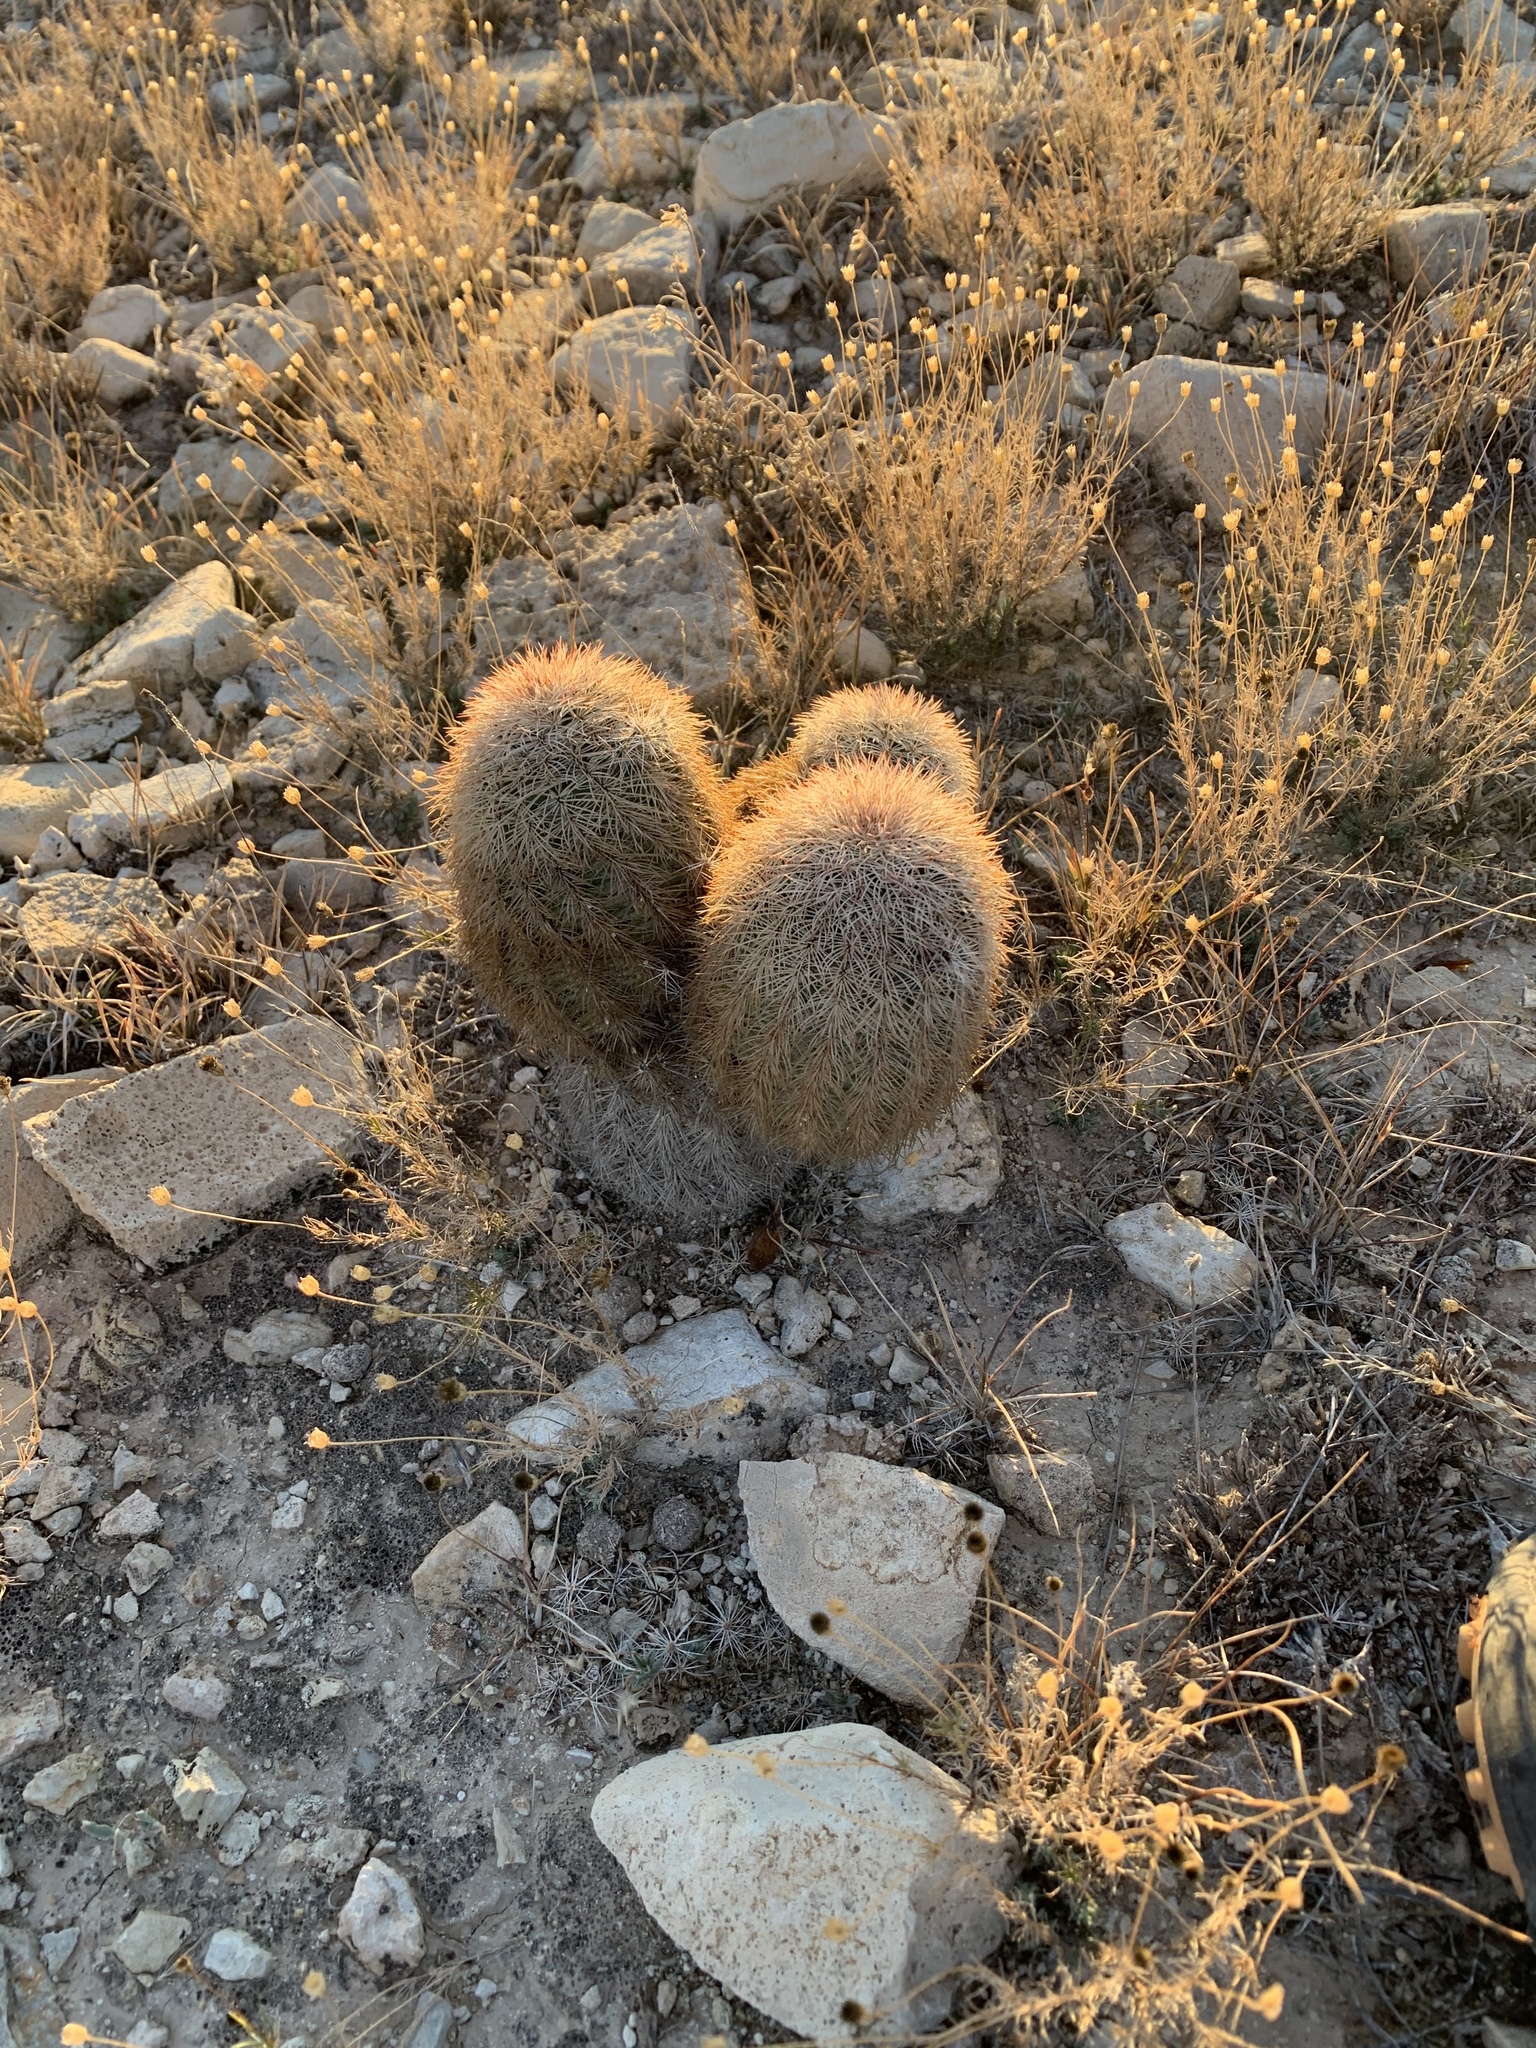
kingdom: Plantae
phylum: Tracheophyta
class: Magnoliopsida
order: Caryophyllales
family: Cactaceae
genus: Echinocereus
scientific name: Echinocereus dasyacanthus
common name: Spiny hedgehog cactus
